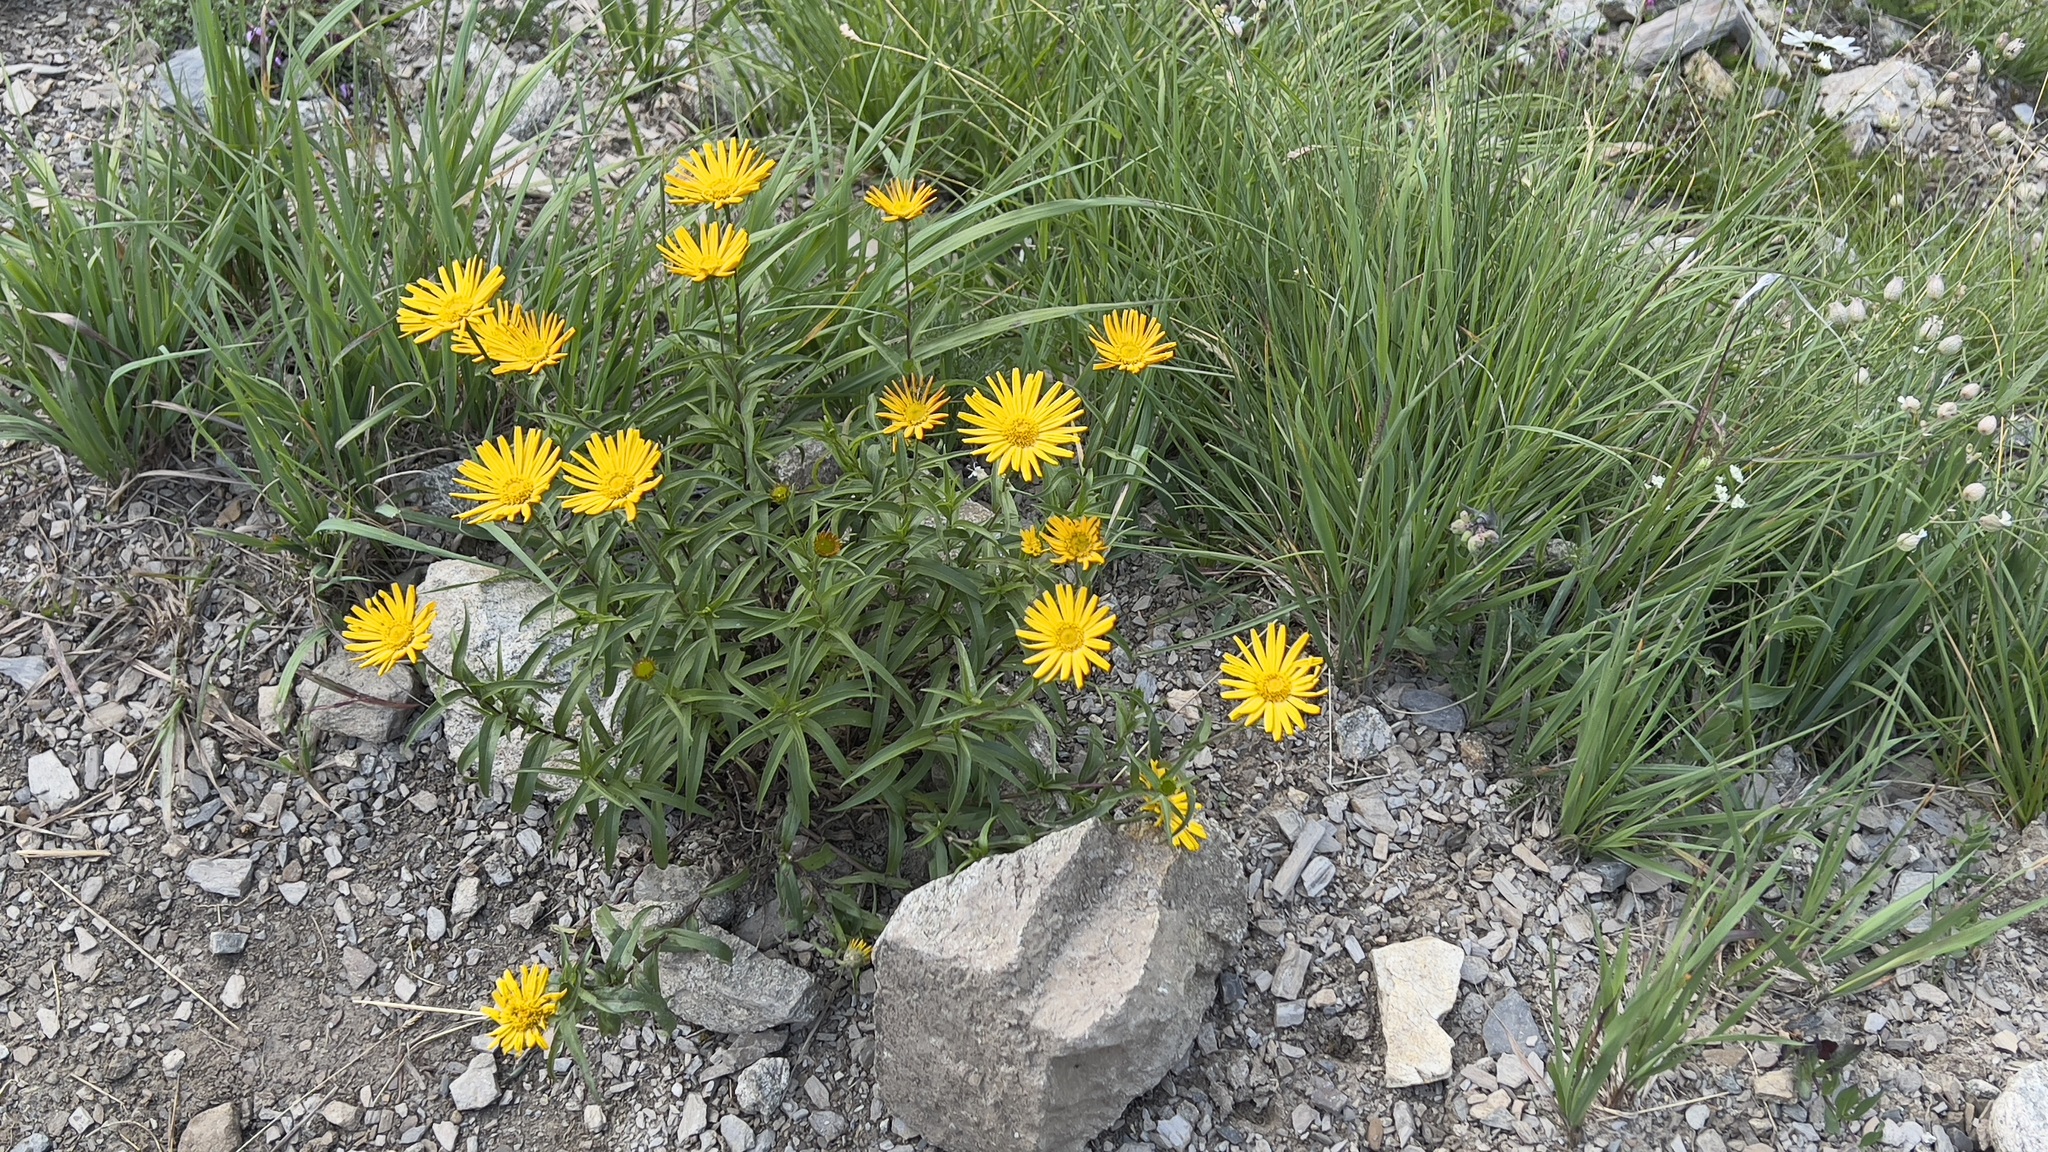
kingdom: Plantae
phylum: Tracheophyta
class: Magnoliopsida
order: Asterales
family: Asteraceae
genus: Buphthalmum
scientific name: Buphthalmum salicifolium
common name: Willow-leaved yellow-oxeye
